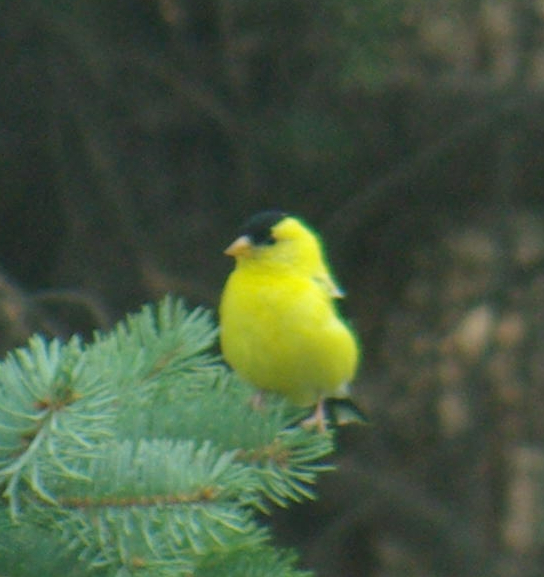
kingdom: Animalia
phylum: Chordata
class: Aves
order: Passeriformes
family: Fringillidae
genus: Spinus
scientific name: Spinus tristis
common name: American goldfinch
